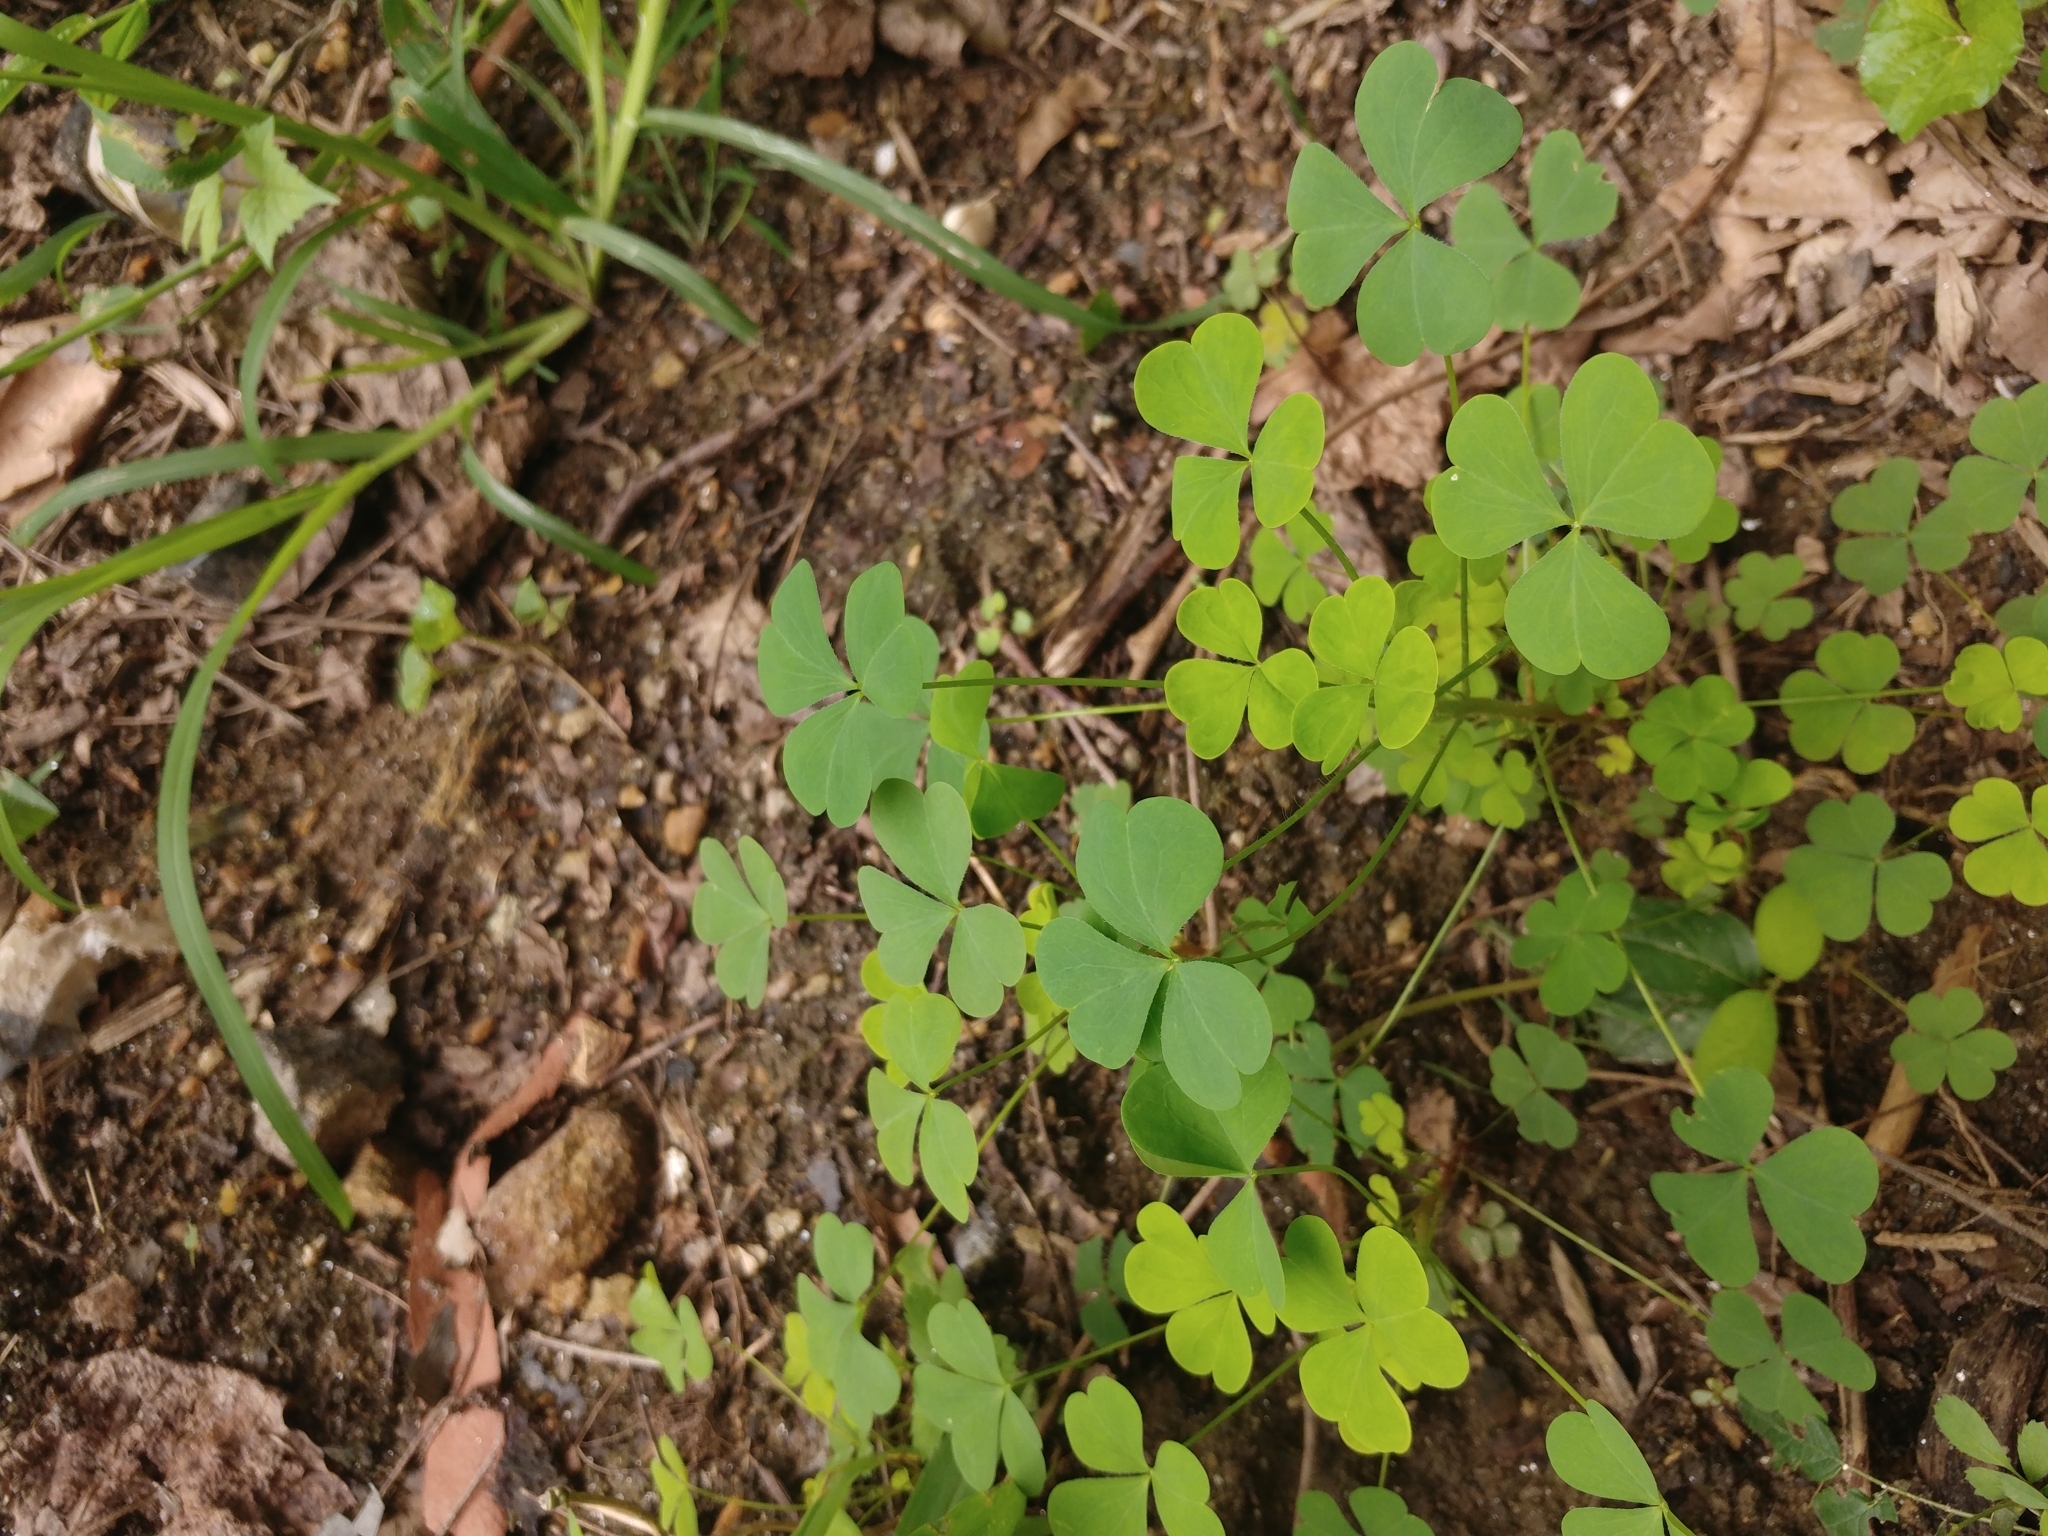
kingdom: Plantae
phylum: Tracheophyta
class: Magnoliopsida
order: Oxalidales
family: Oxalidaceae
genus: Oxalis
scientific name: Oxalis stricta
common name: Upright yellow-sorrel
